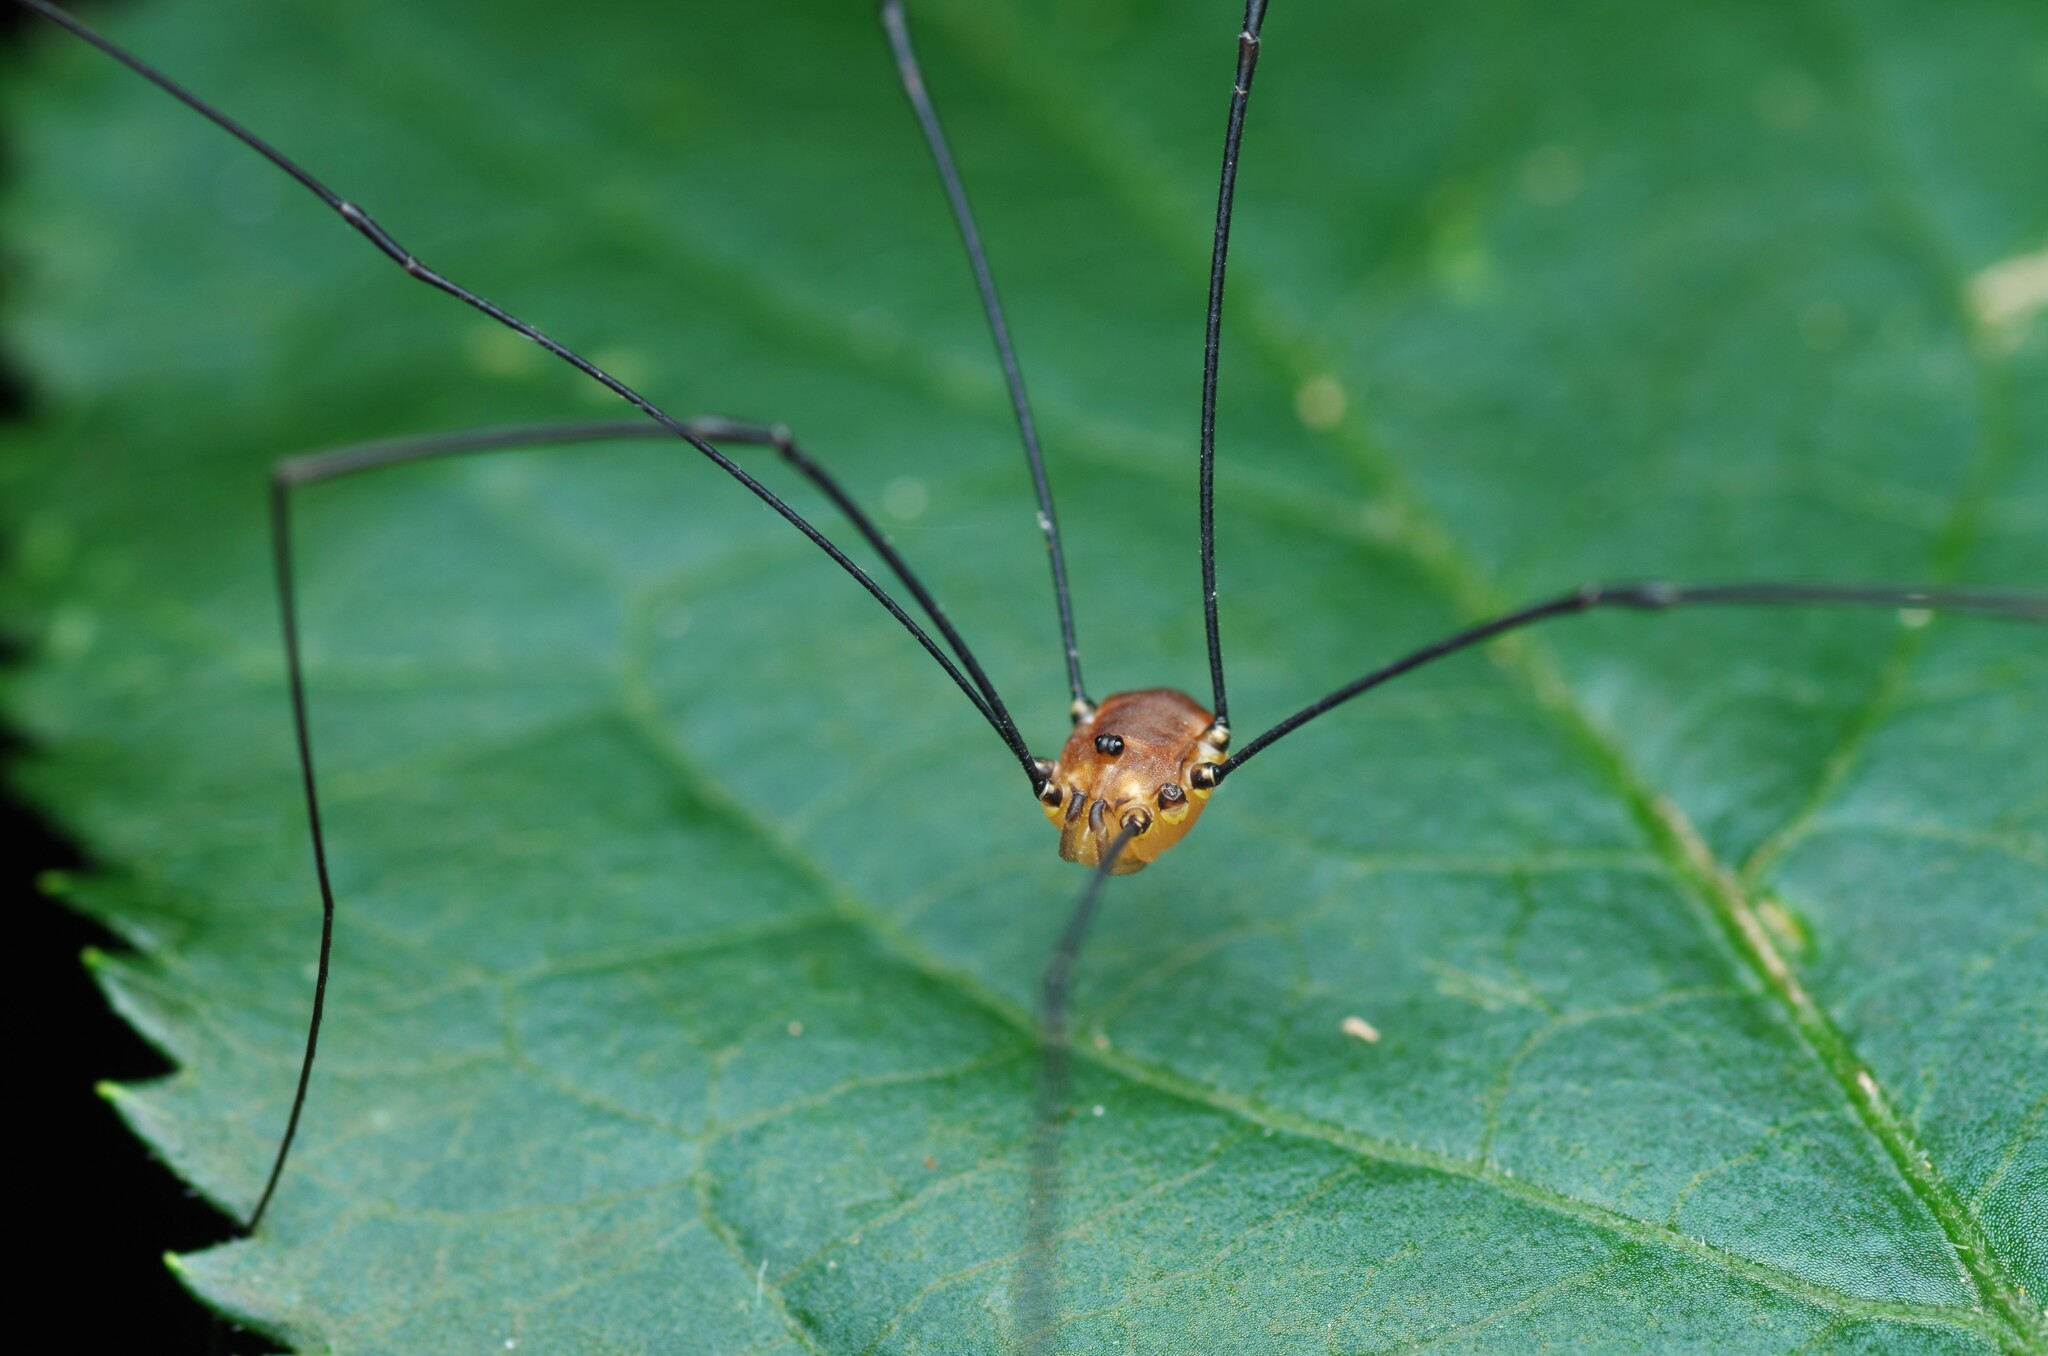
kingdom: Animalia
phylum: Arthropoda
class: Arachnida
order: Opiliones
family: Sclerosomatidae
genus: Leiobunum
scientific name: Leiobunum rotundum
